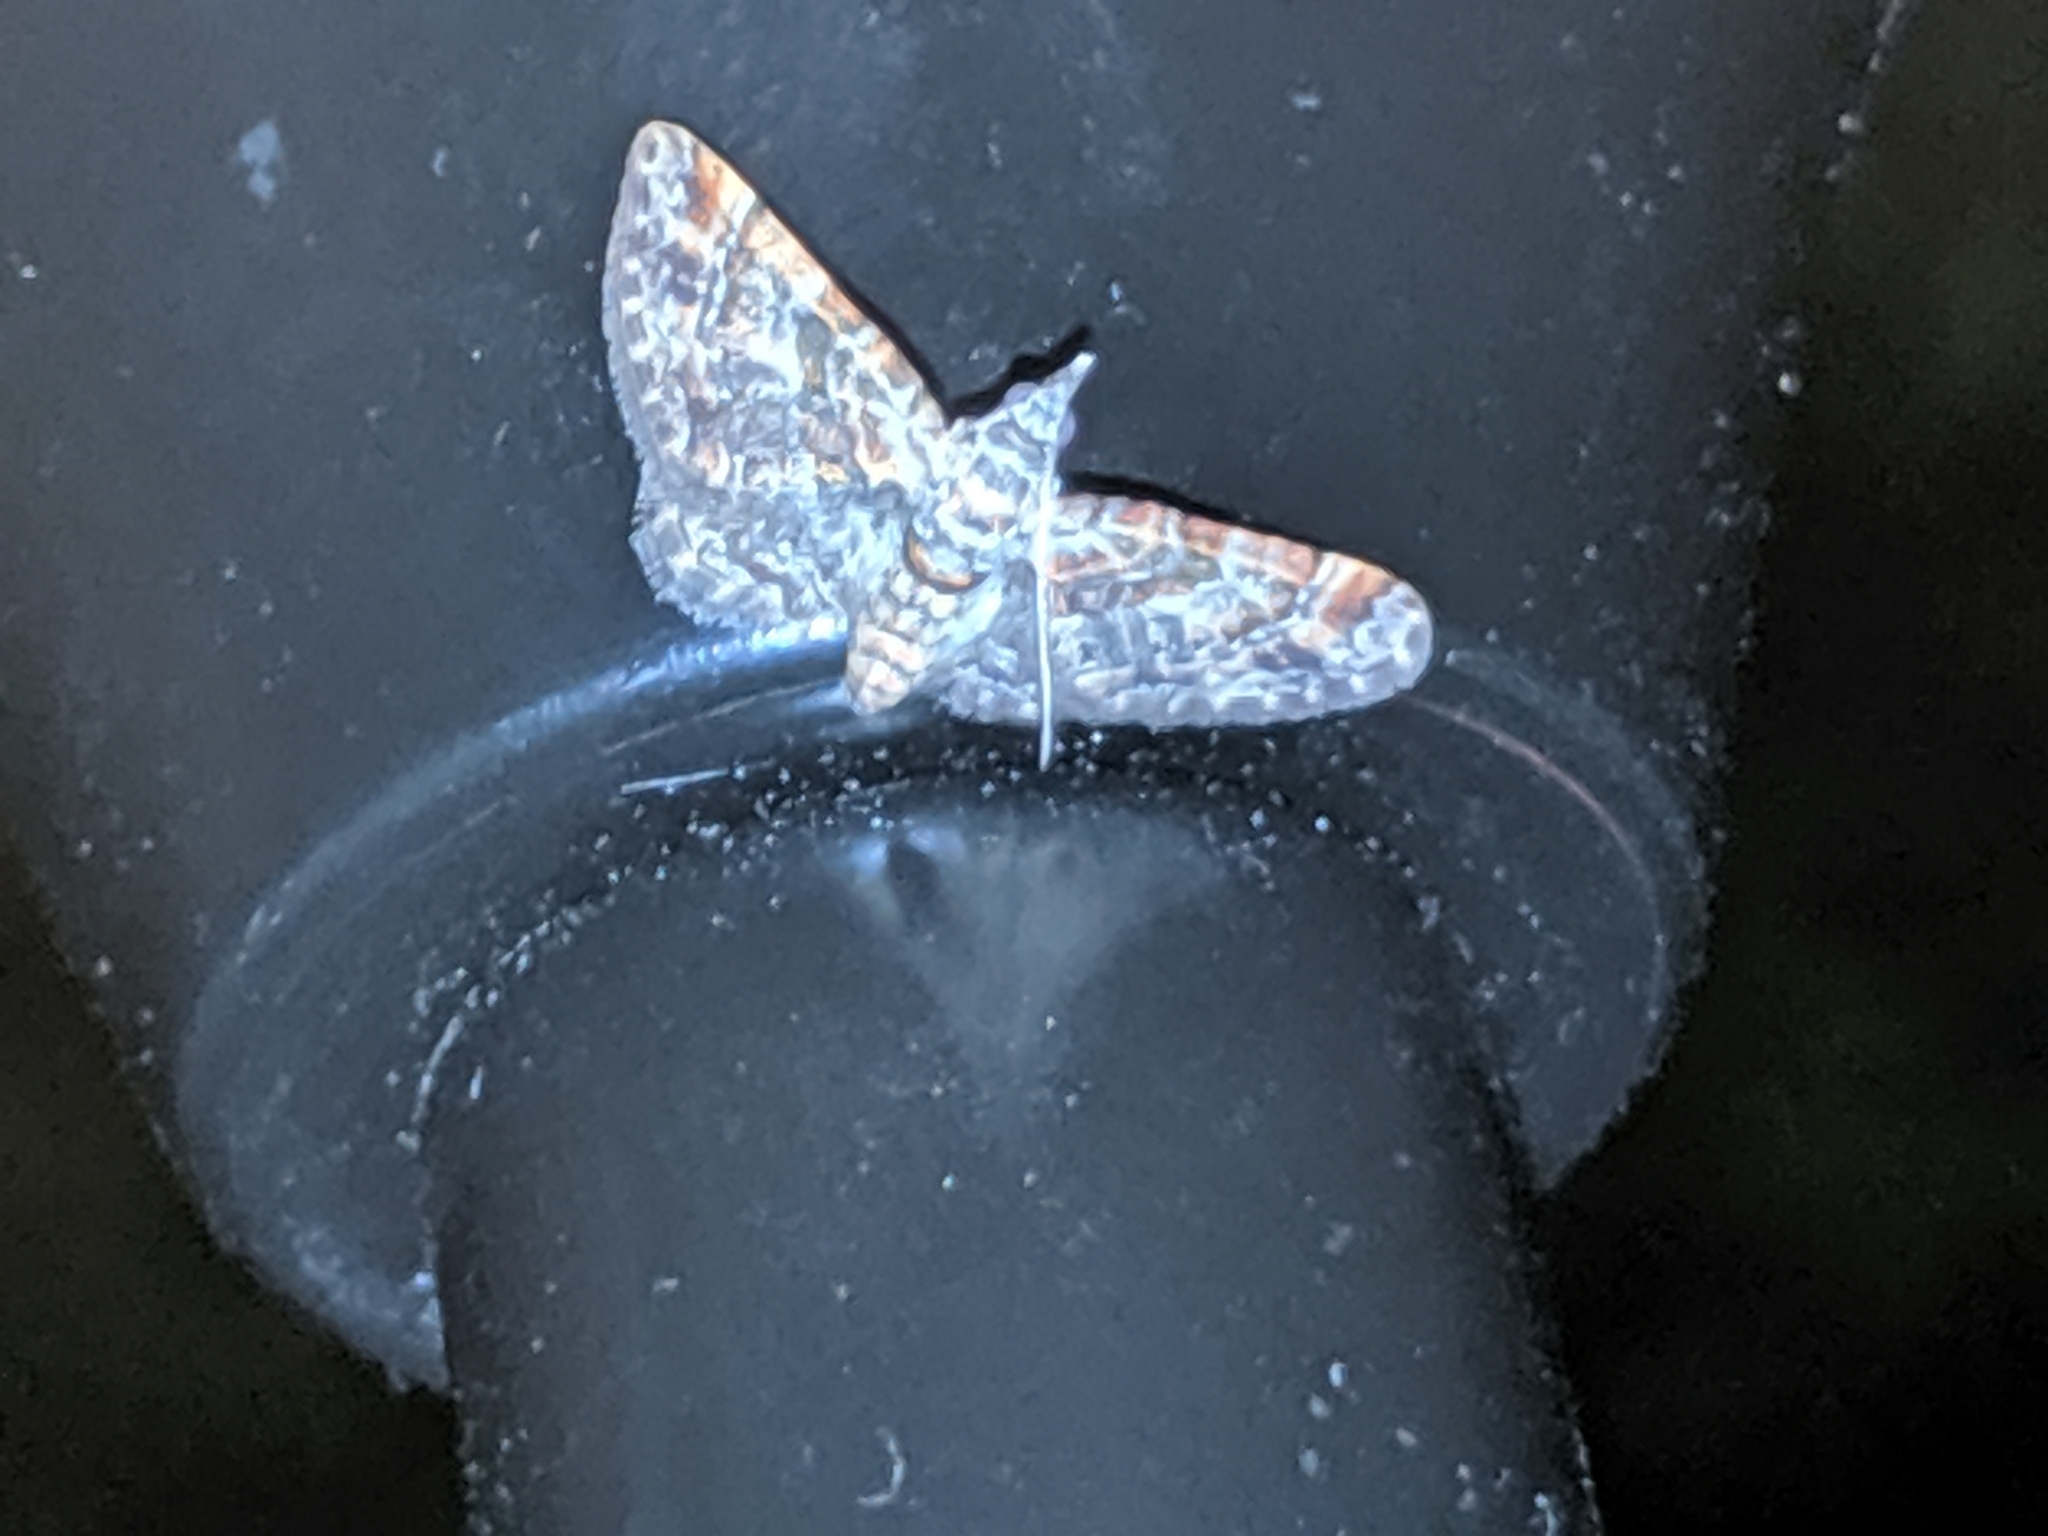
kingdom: Animalia
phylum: Arthropoda
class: Insecta
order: Lepidoptera
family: Geometridae
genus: Gymnoscelis
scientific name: Gymnoscelis rufifasciata
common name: Double-striped pug
